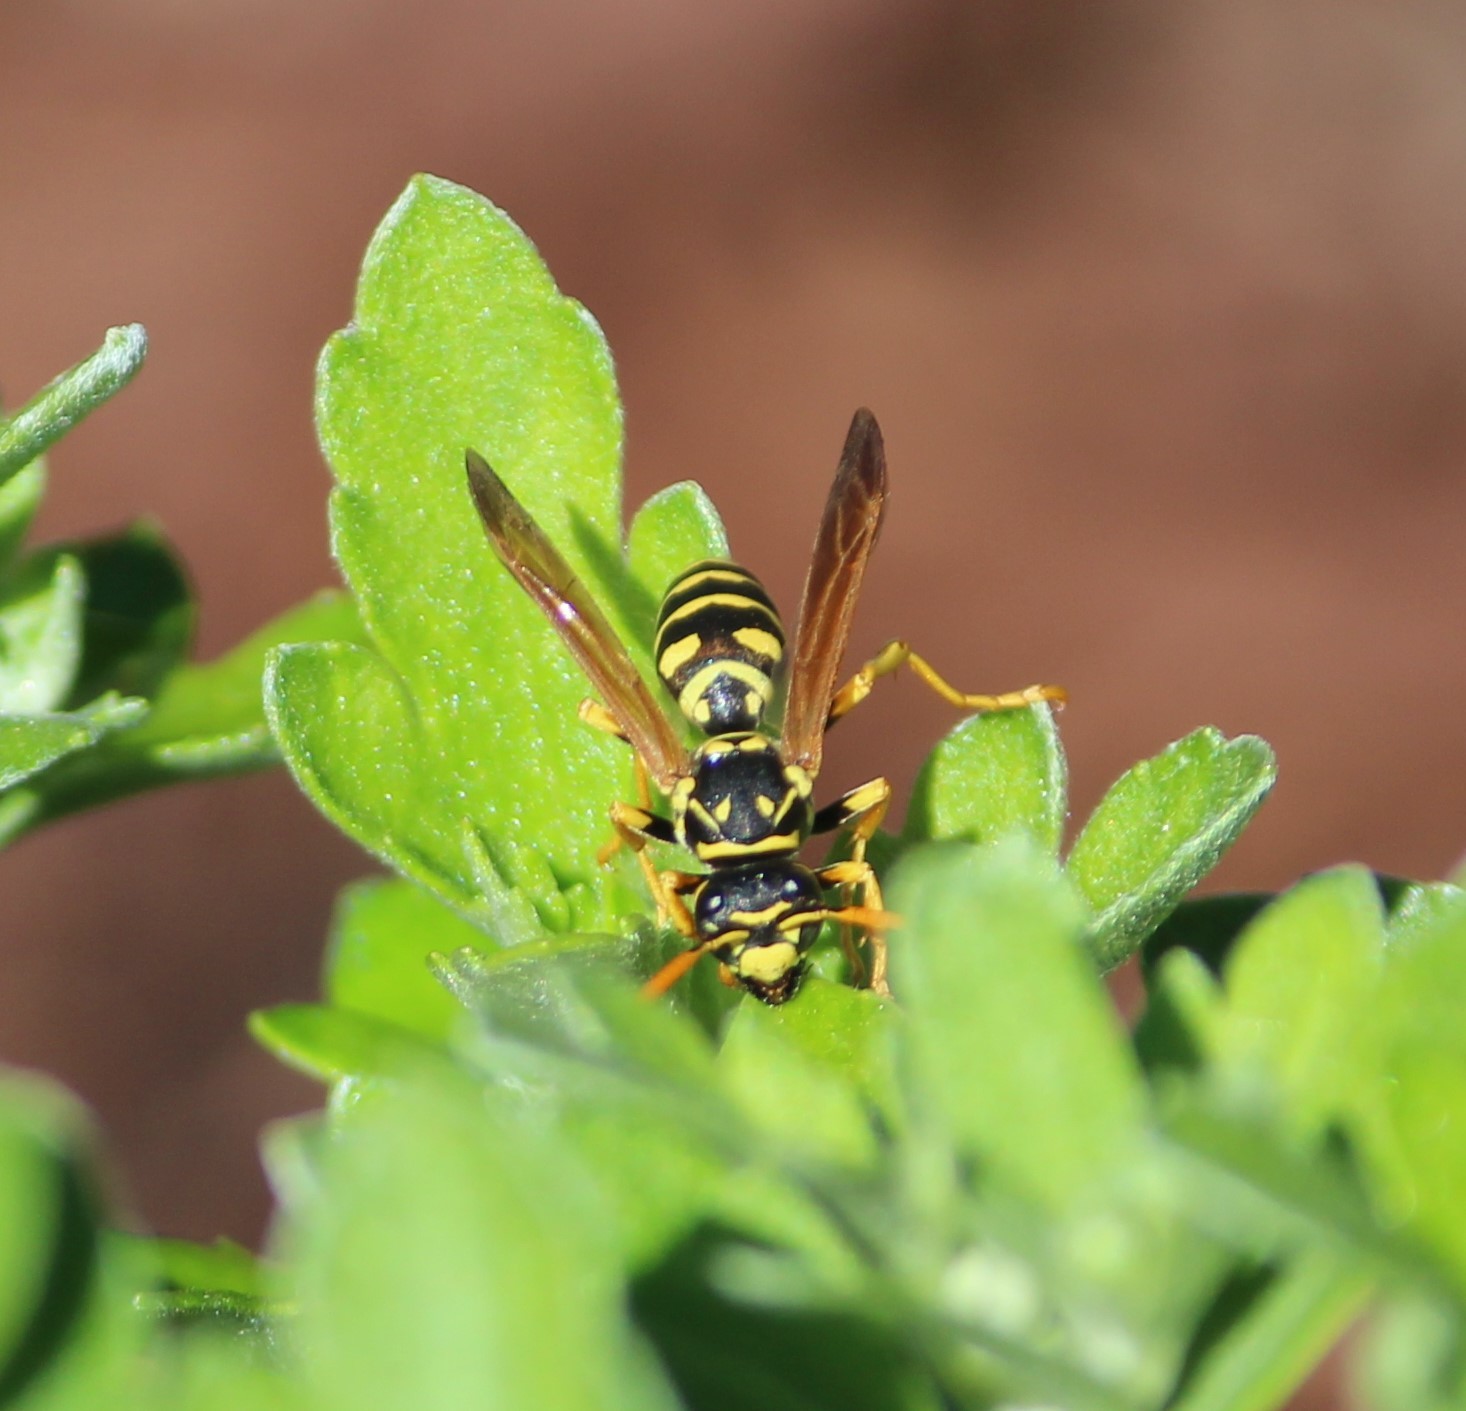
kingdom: Animalia
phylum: Arthropoda
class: Insecta
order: Hymenoptera
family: Eumenidae
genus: Polistes
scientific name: Polistes dominula
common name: Paper wasp
